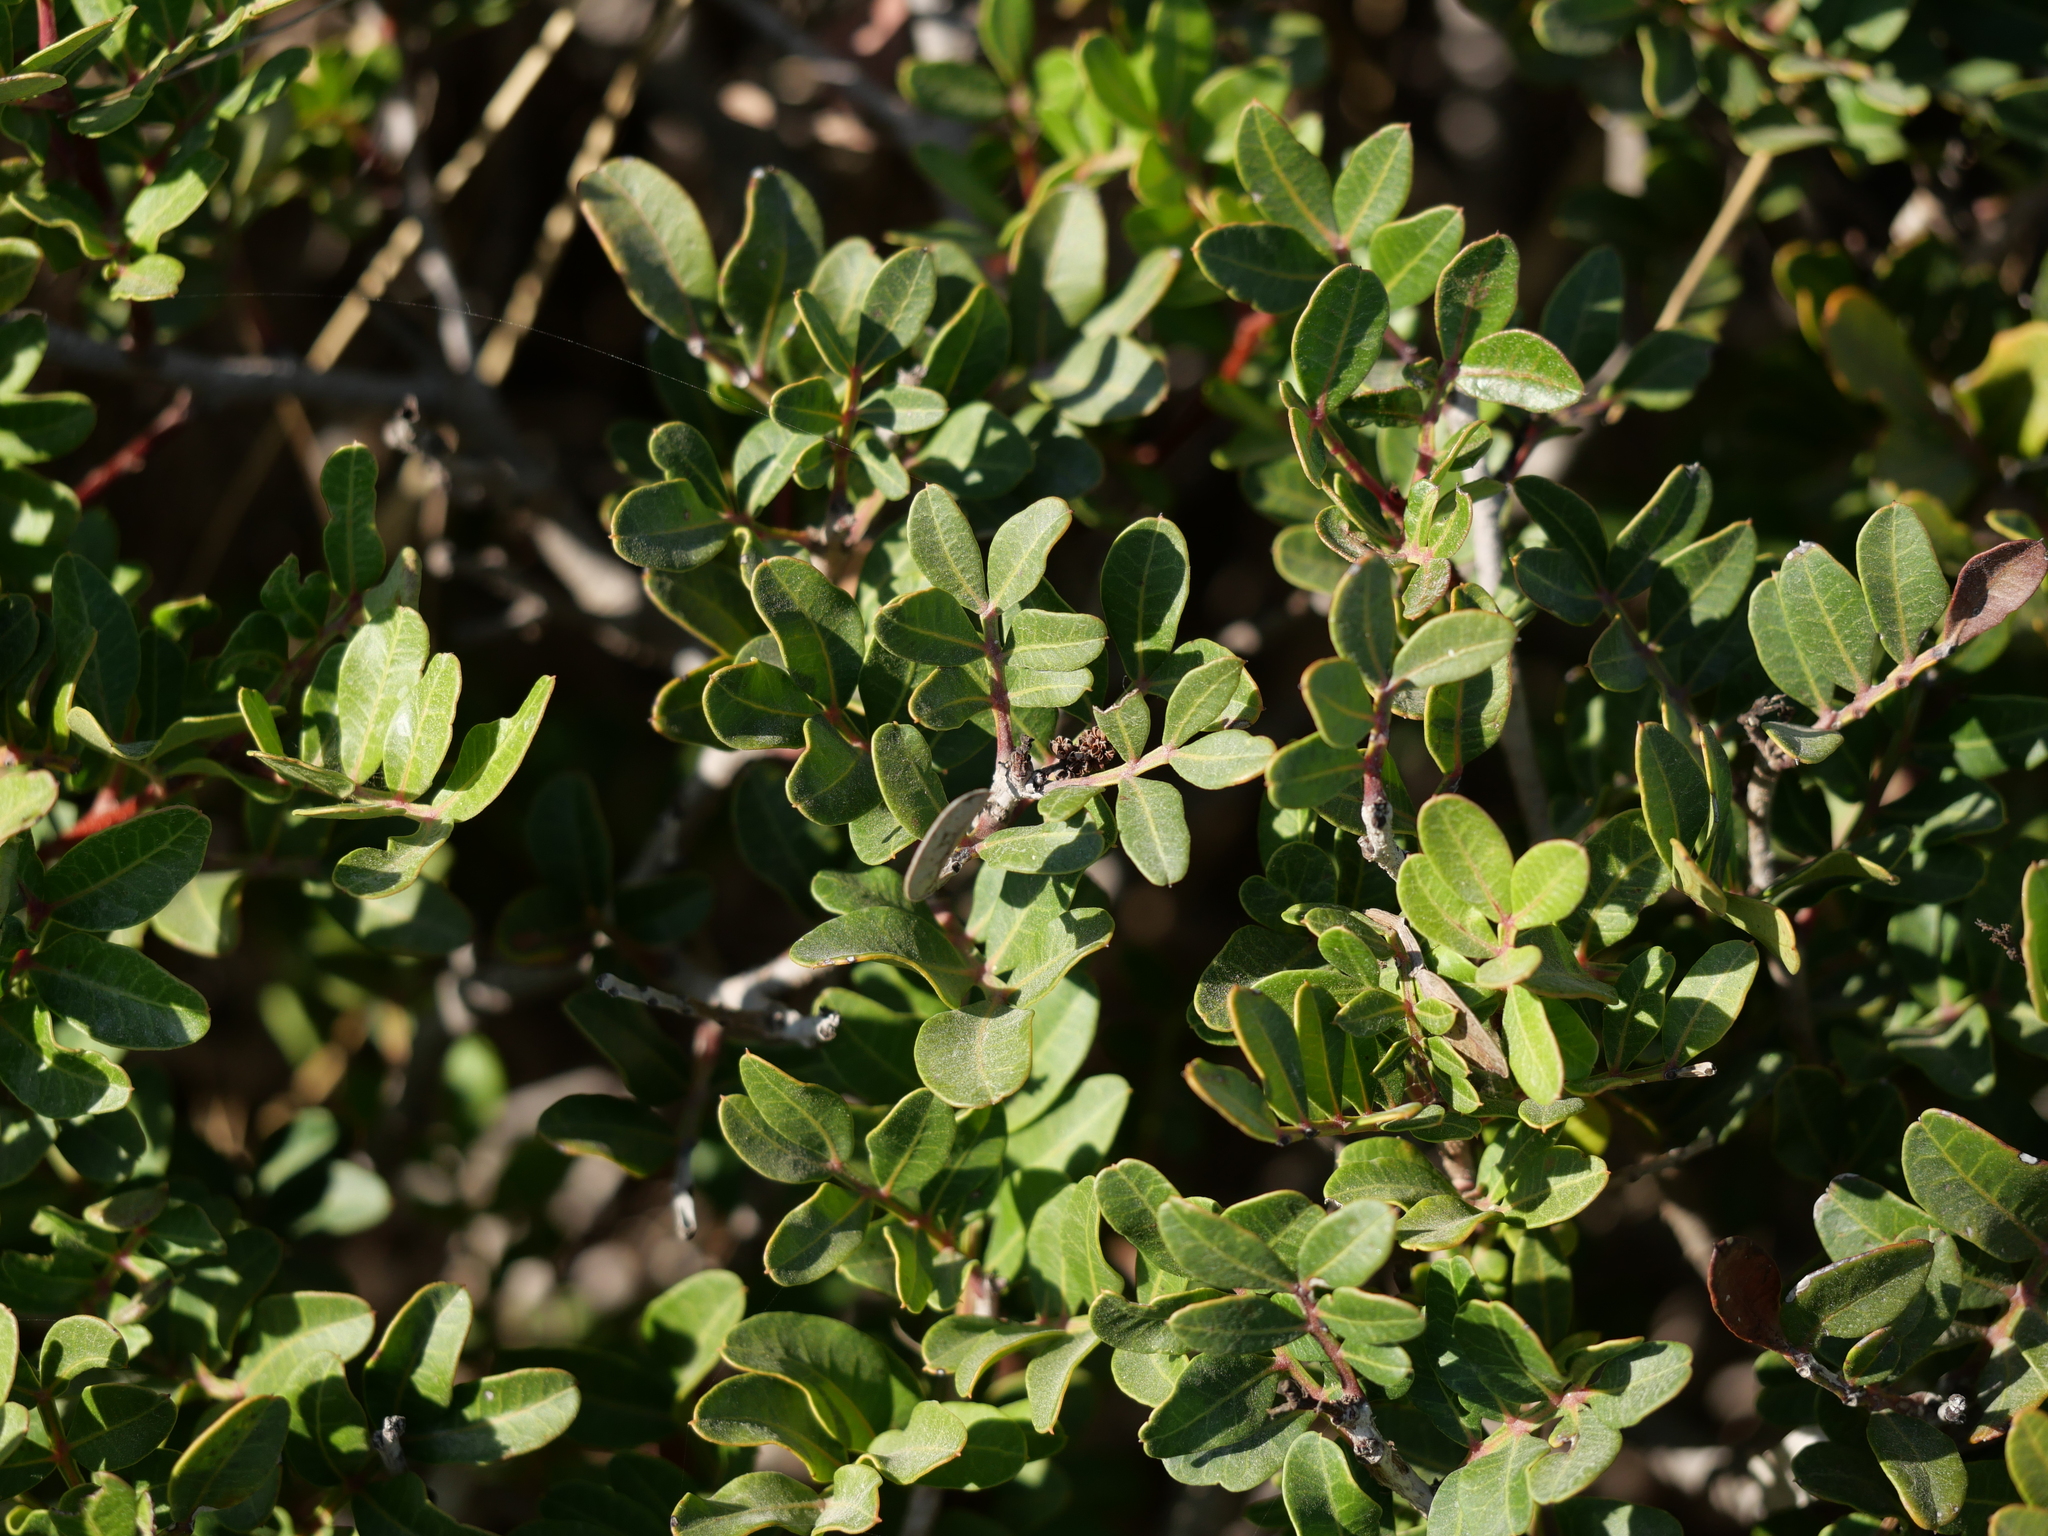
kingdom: Plantae
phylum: Tracheophyta
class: Magnoliopsida
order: Sapindales
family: Anacardiaceae
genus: Pistacia
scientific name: Pistacia lentiscus
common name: Lentisk
